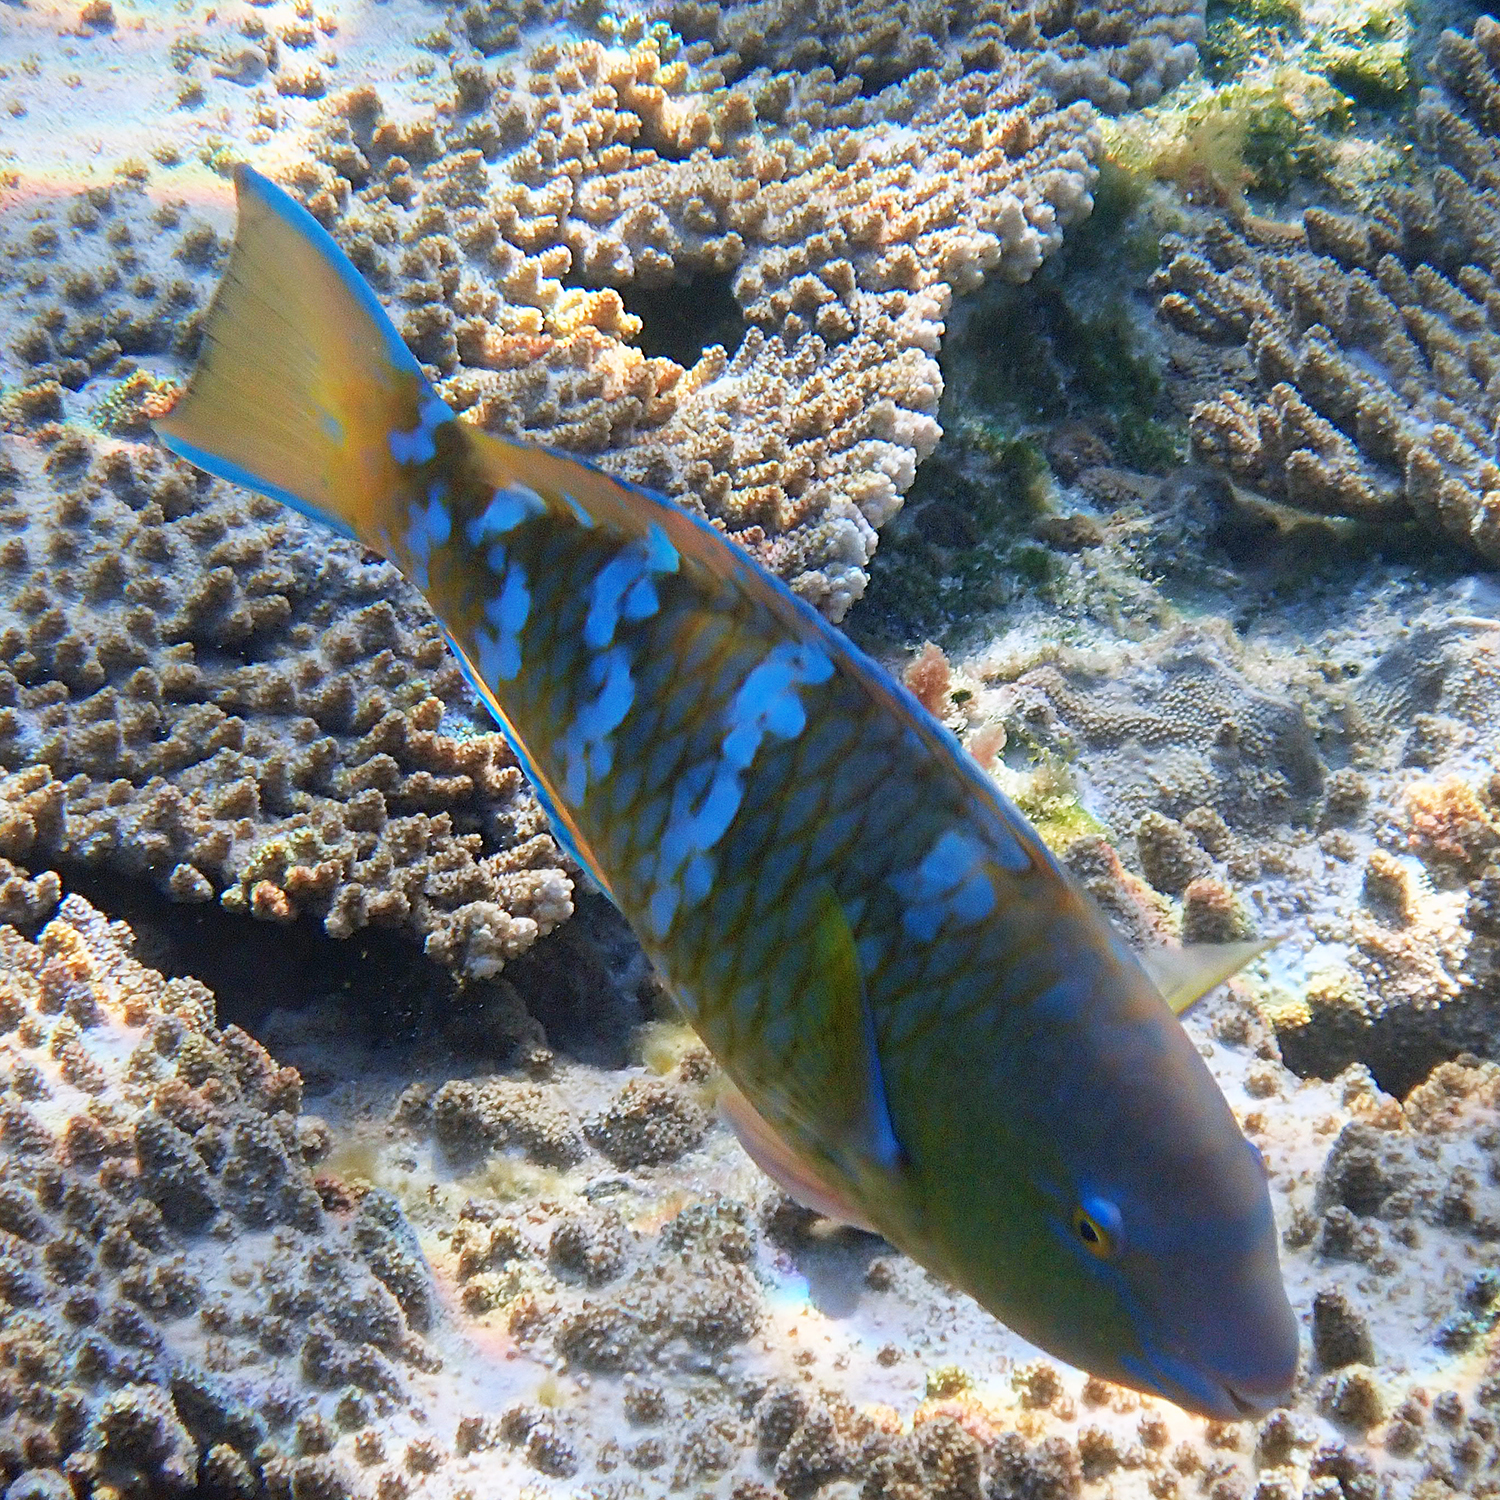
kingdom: Animalia
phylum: Chordata
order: Perciformes
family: Scaridae
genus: Scarus
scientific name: Scarus ghobban
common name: Blue-barred parrotfish
